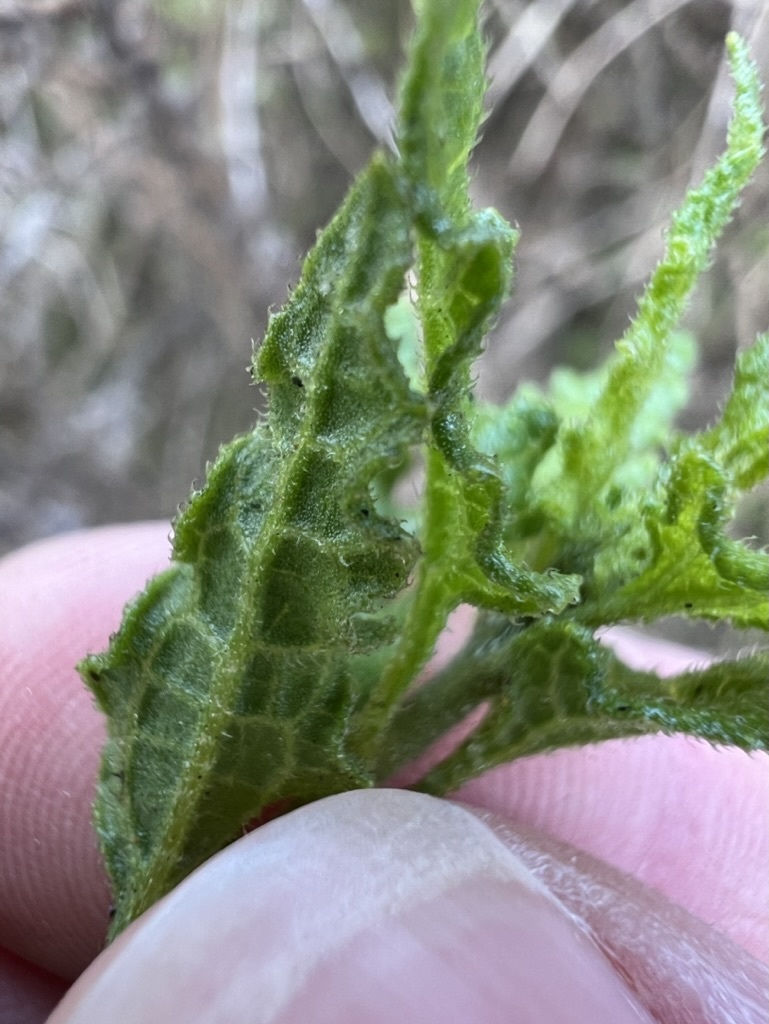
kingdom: Plantae
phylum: Tracheophyta
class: Magnoliopsida
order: Asterales
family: Asteraceae
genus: Bahiopsis
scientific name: Bahiopsis laciniata
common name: San diego county viguiera
